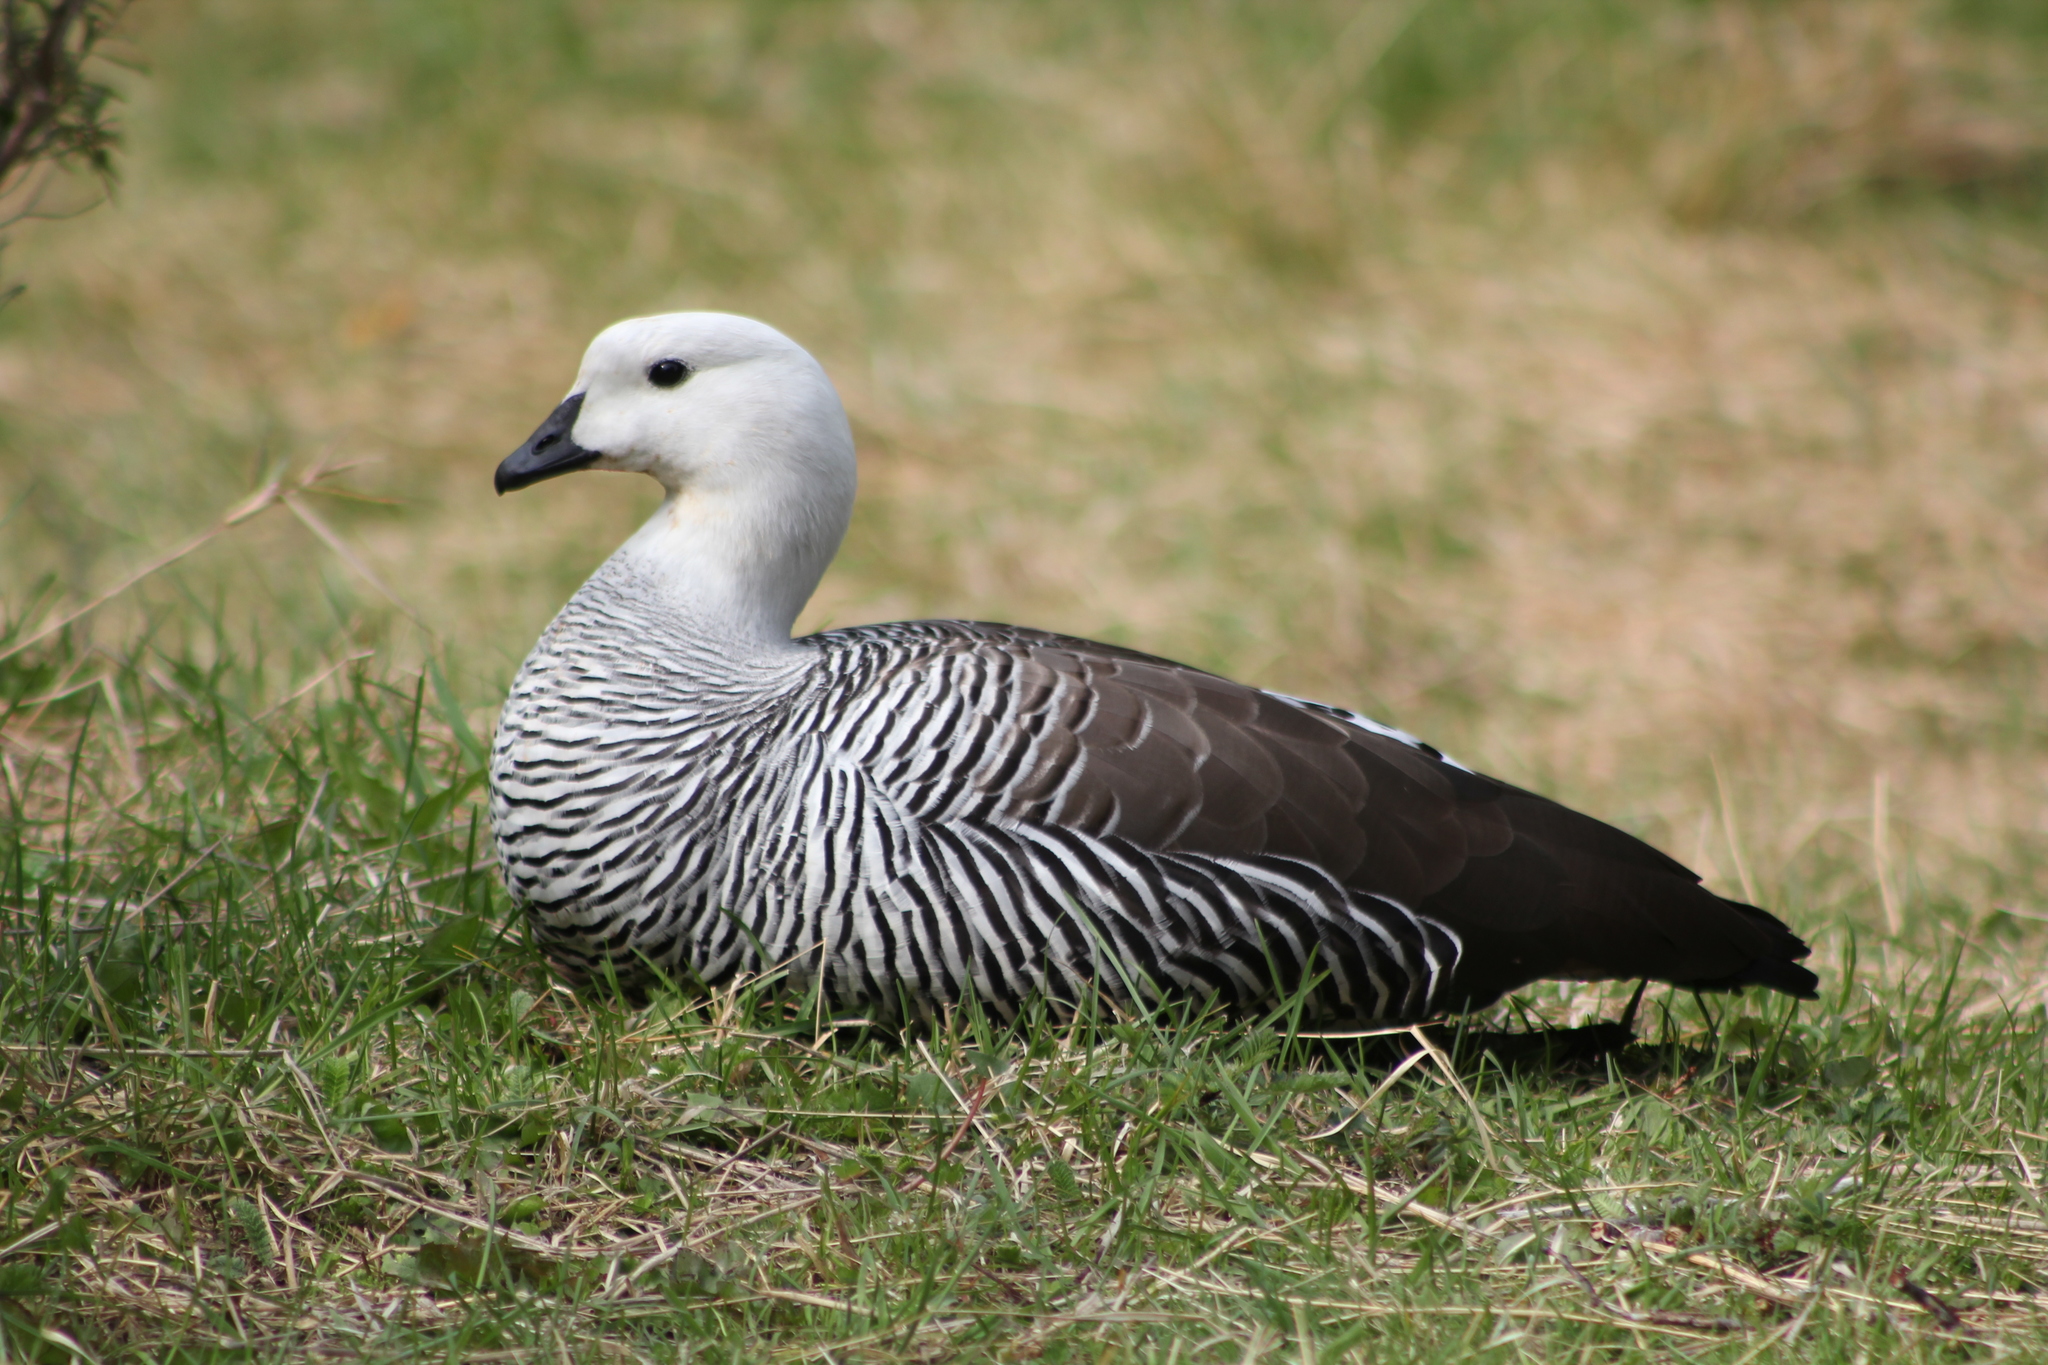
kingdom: Animalia
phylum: Chordata
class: Aves
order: Anseriformes
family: Anatidae
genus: Chloephaga
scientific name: Chloephaga picta
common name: Upland goose
